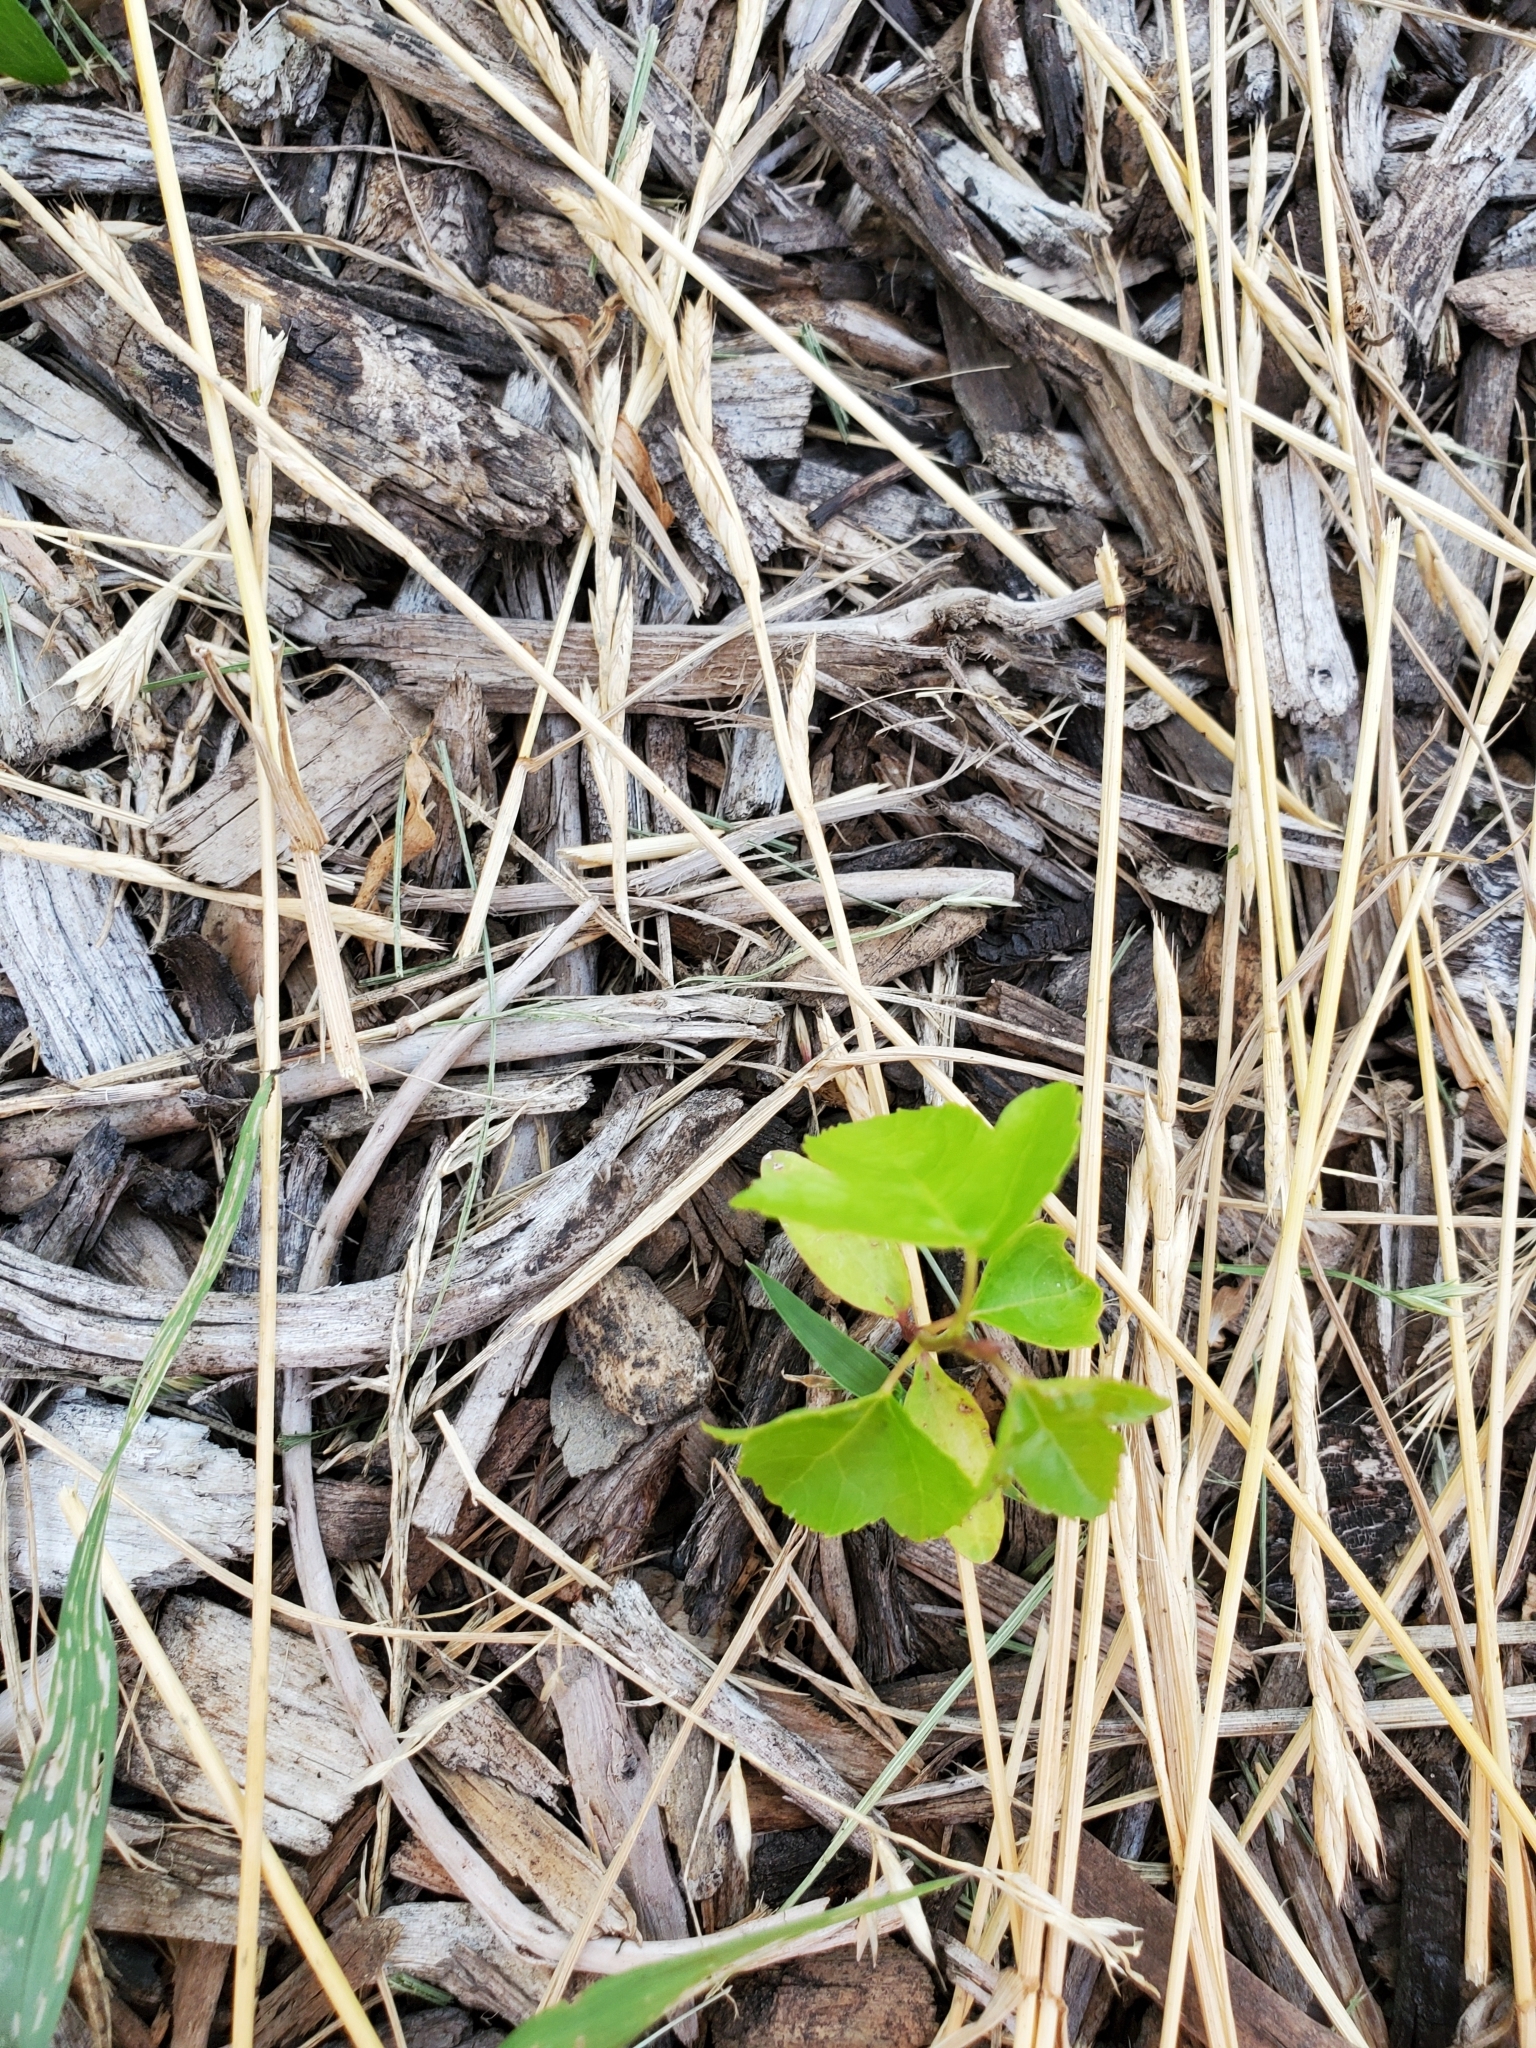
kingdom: Plantae
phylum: Tracheophyta
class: Magnoliopsida
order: Saxifragales
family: Altingiaceae
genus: Liquidambar
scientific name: Liquidambar styraciflua
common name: Sweet gum
